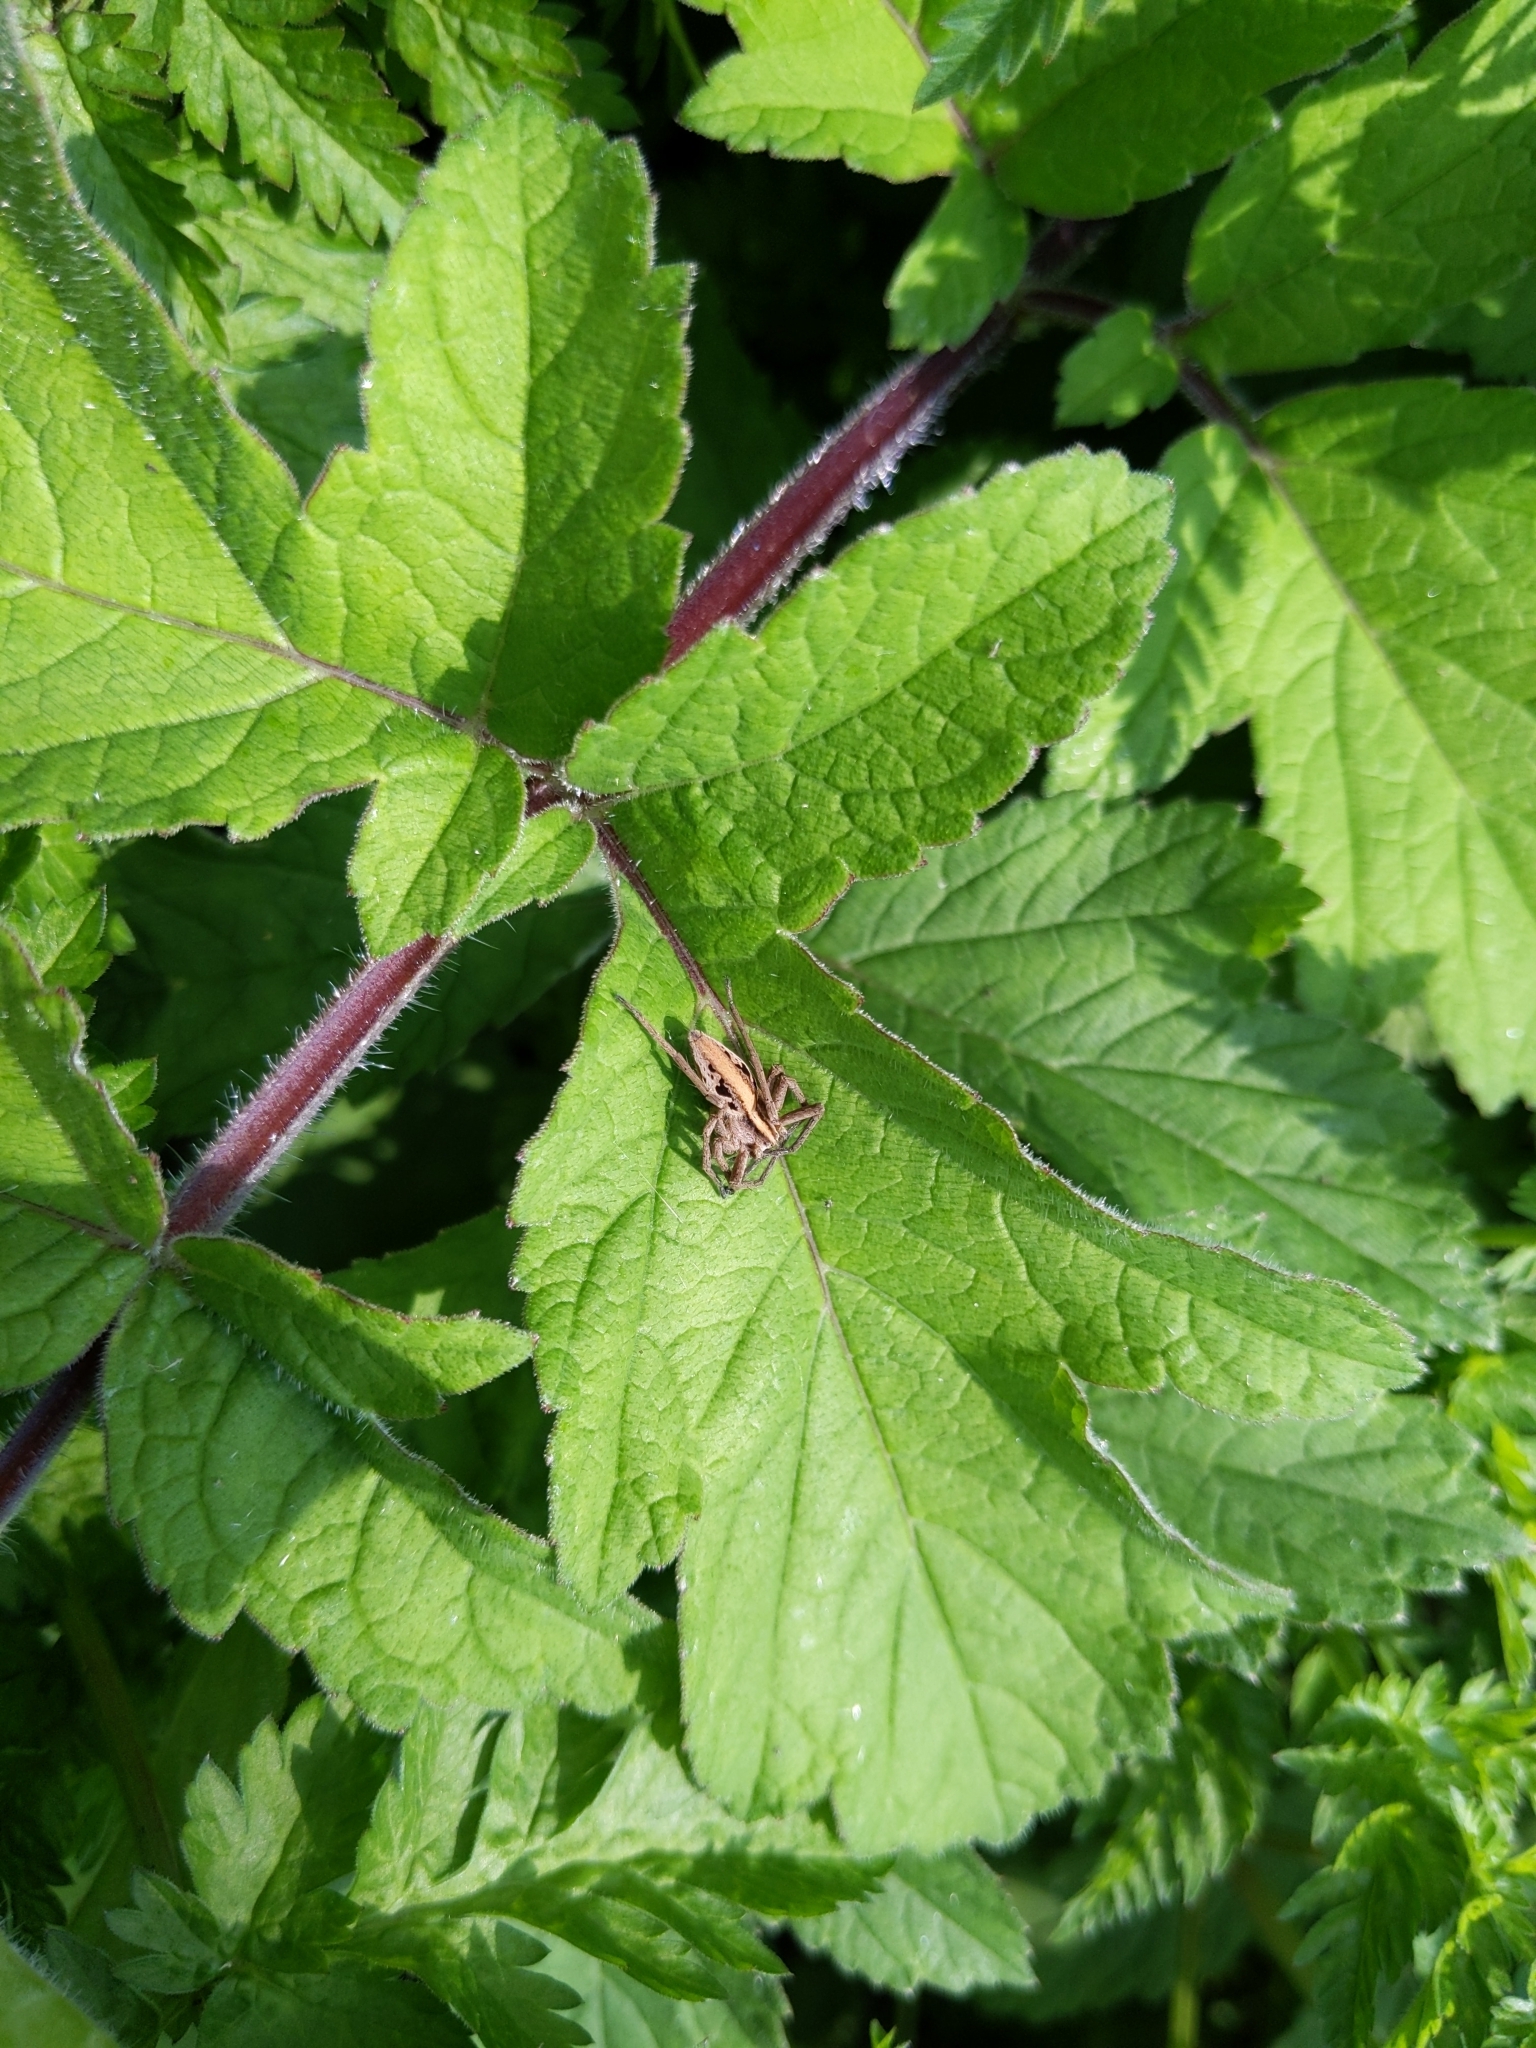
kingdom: Animalia
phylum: Arthropoda
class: Arachnida
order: Araneae
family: Pisauridae
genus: Pisaura
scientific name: Pisaura mirabilis
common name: Tent spider
